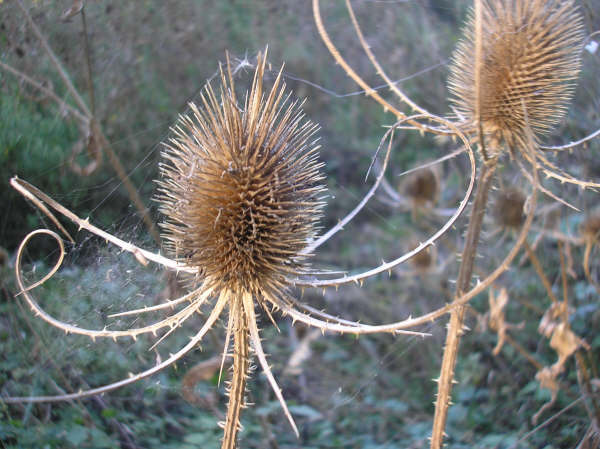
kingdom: Plantae
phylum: Tracheophyta
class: Magnoliopsida
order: Dipsacales
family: Caprifoliaceae
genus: Dipsacus
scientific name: Dipsacus fullonum
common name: Teasel
